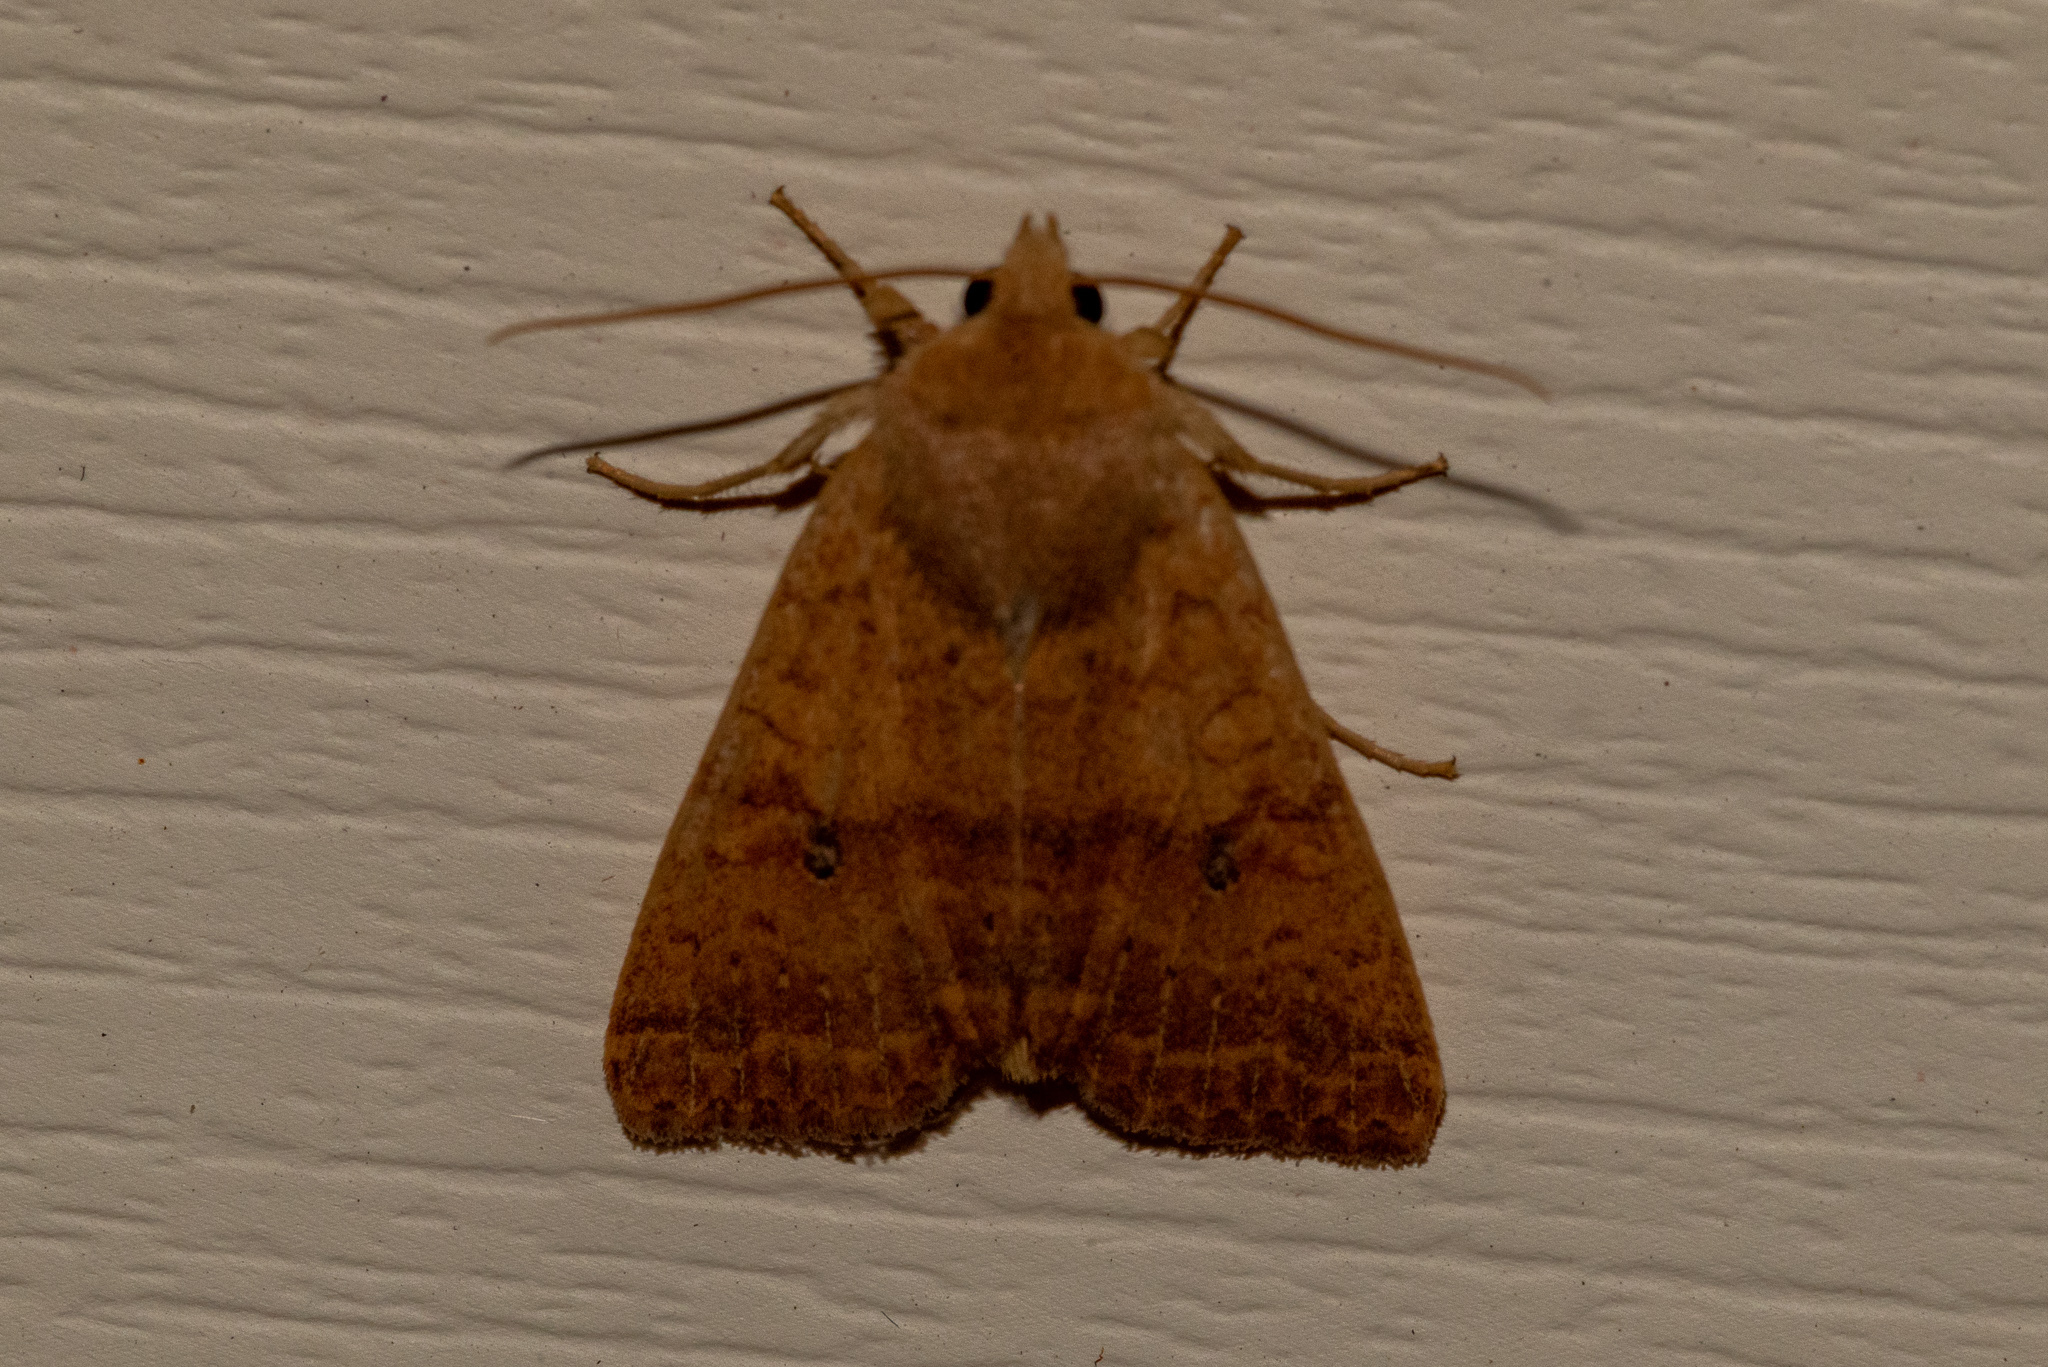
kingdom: Animalia
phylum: Arthropoda
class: Insecta
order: Lepidoptera
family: Noctuidae
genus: Agrochola
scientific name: Agrochola bicolorago
